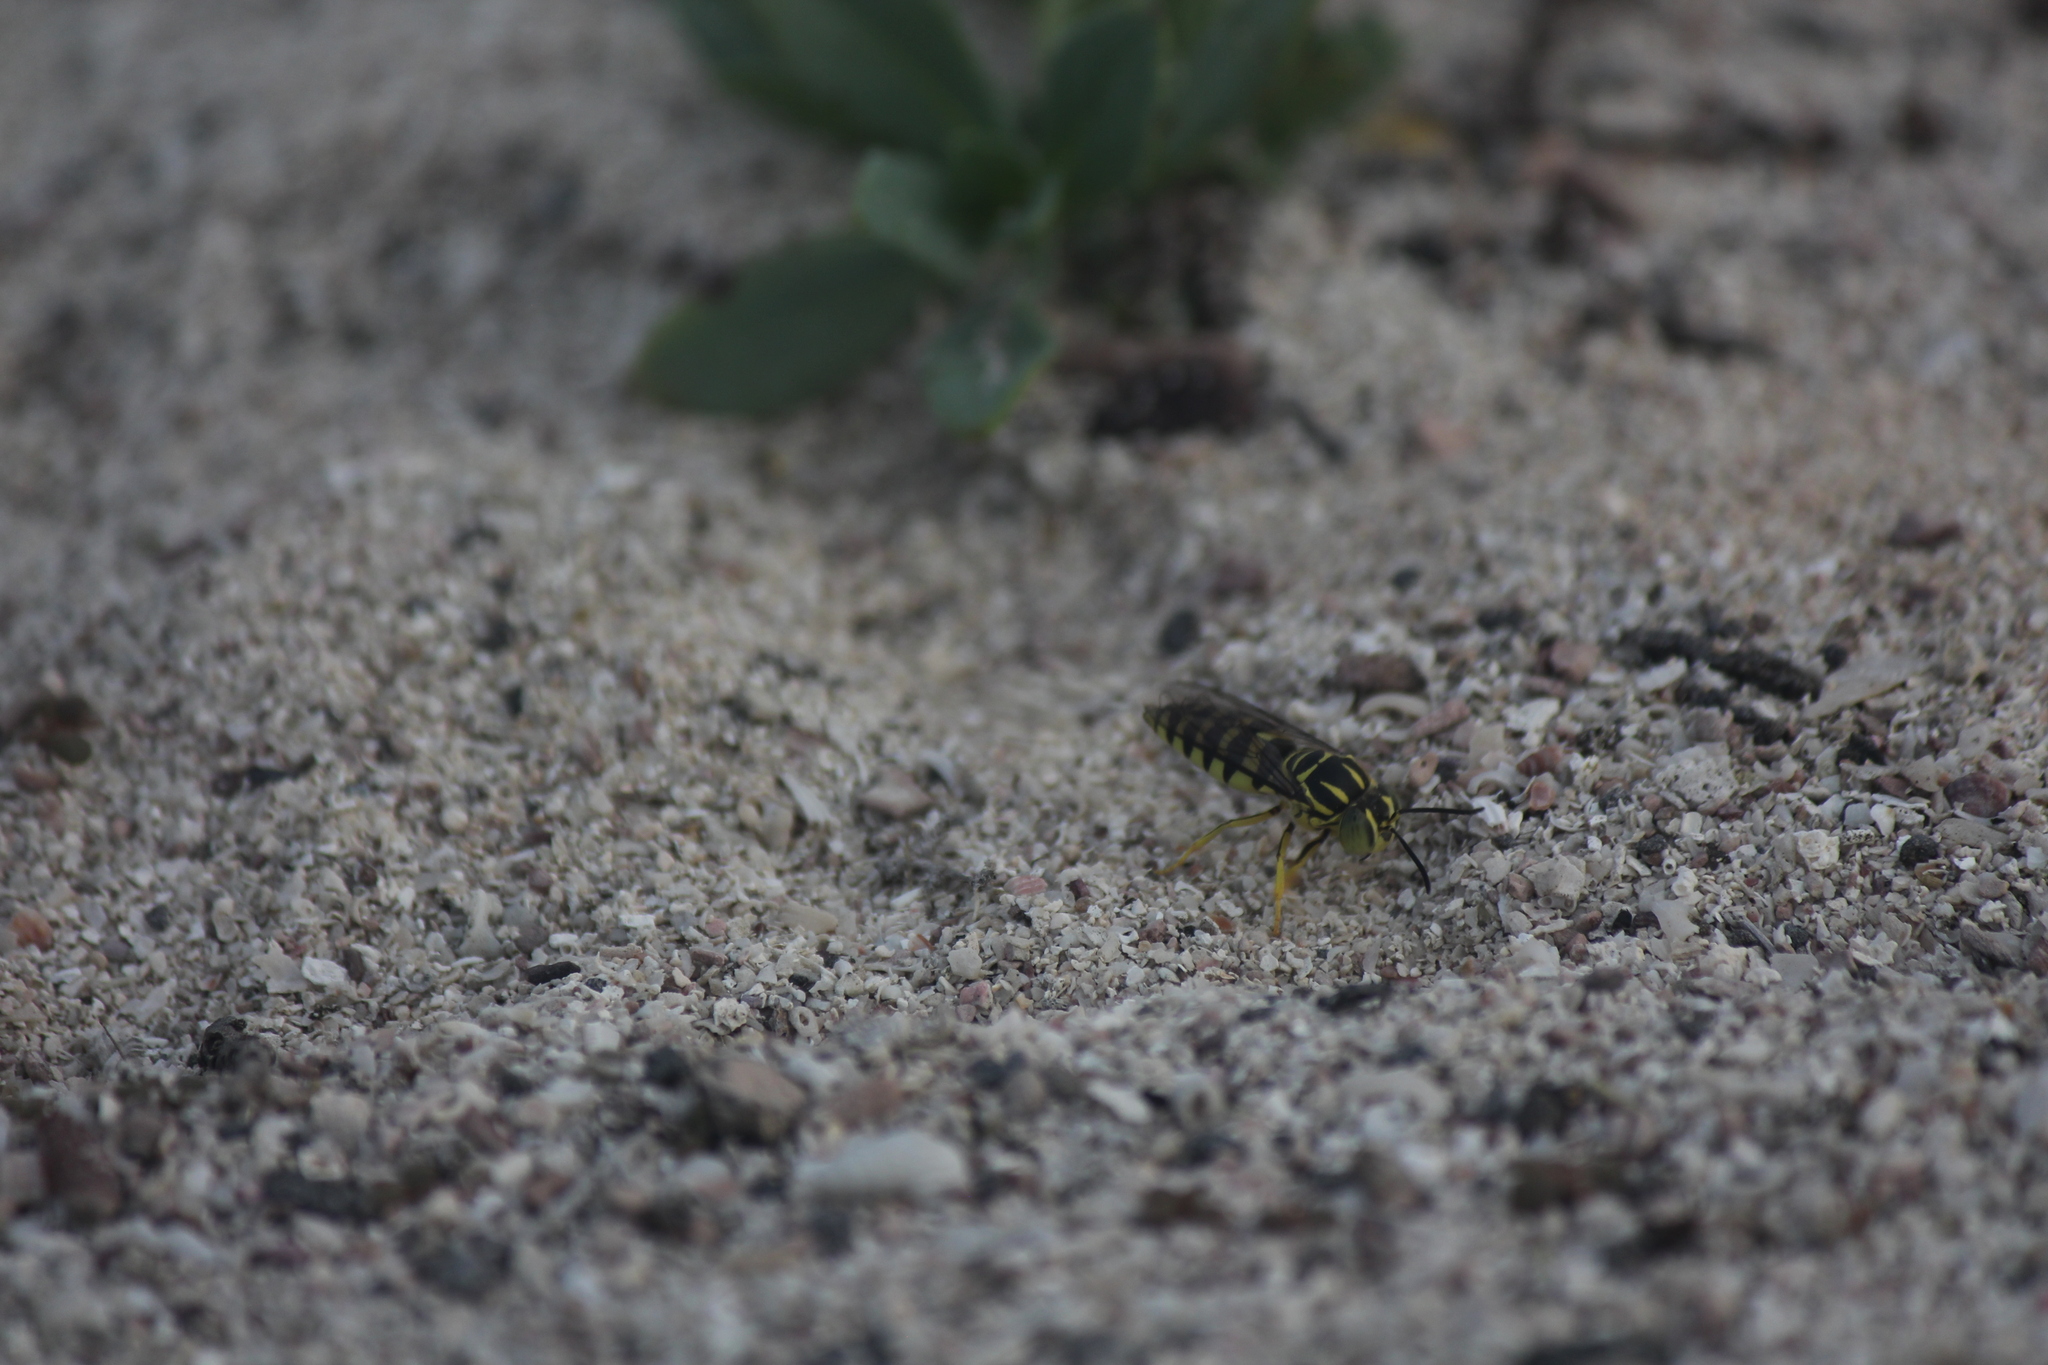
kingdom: Animalia
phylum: Arthropoda
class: Insecta
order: Hymenoptera
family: Crabronidae
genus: Bicyrtes
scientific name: Bicyrtes variegatus
